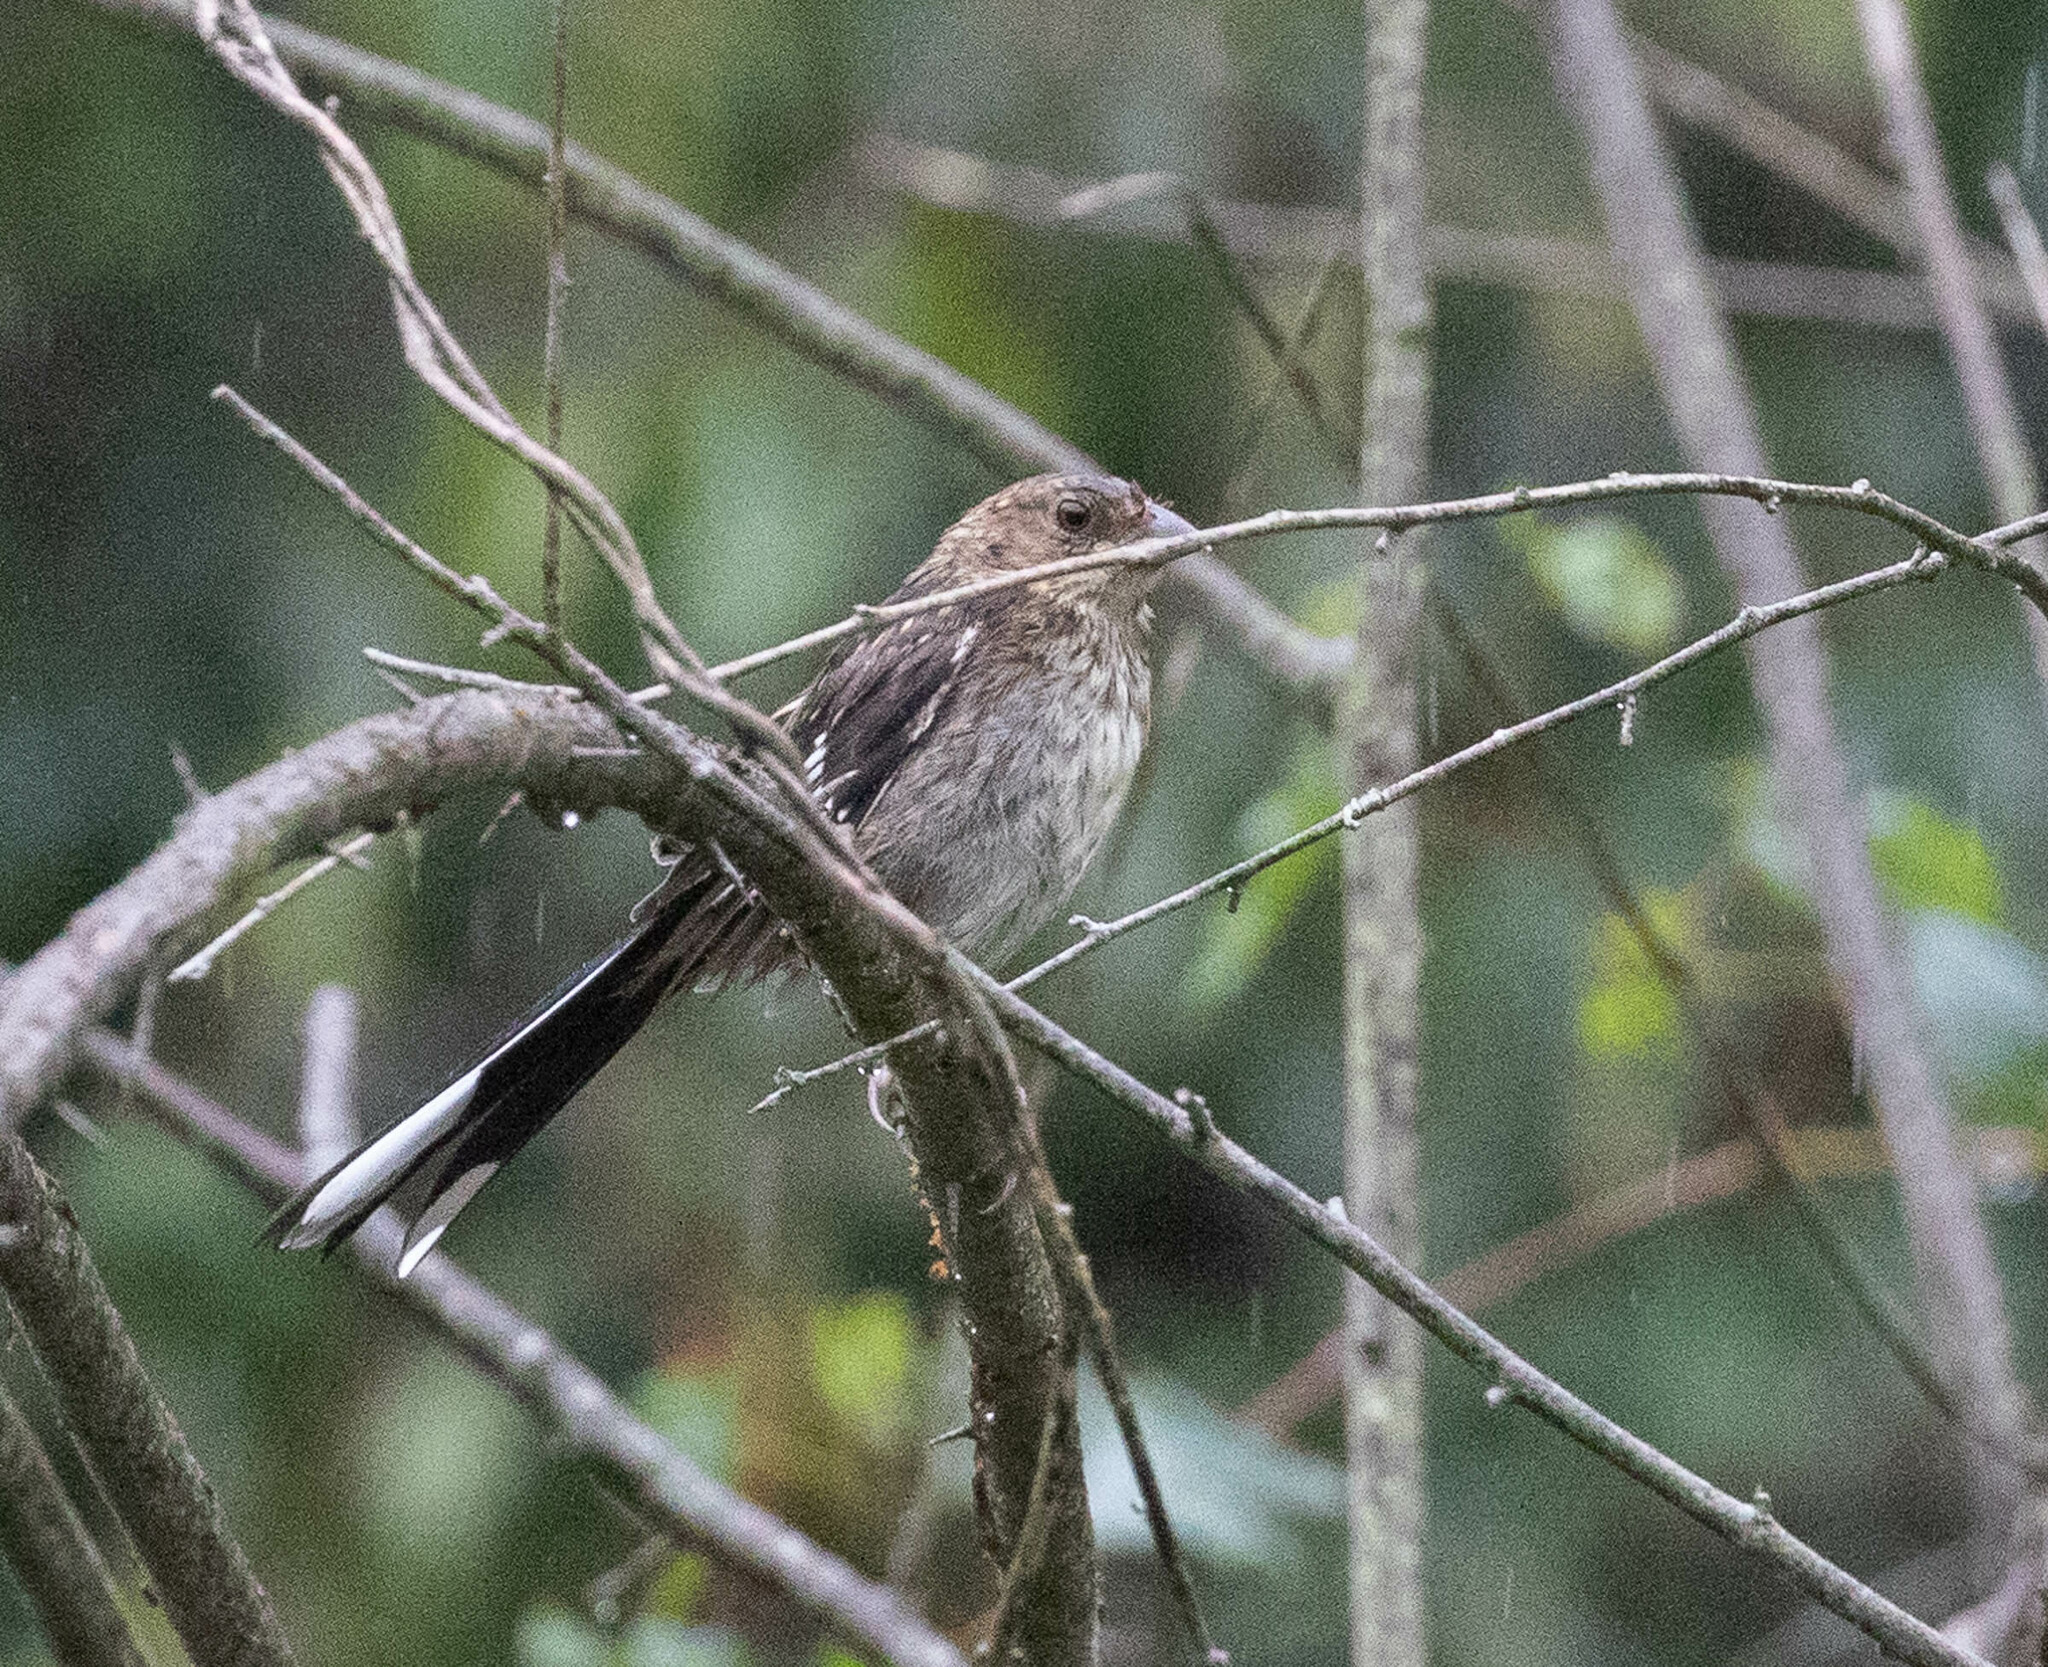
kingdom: Animalia
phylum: Chordata
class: Aves
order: Passeriformes
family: Passerellidae
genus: Pipilo
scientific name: Pipilo erythrophthalmus
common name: Eastern towhee
